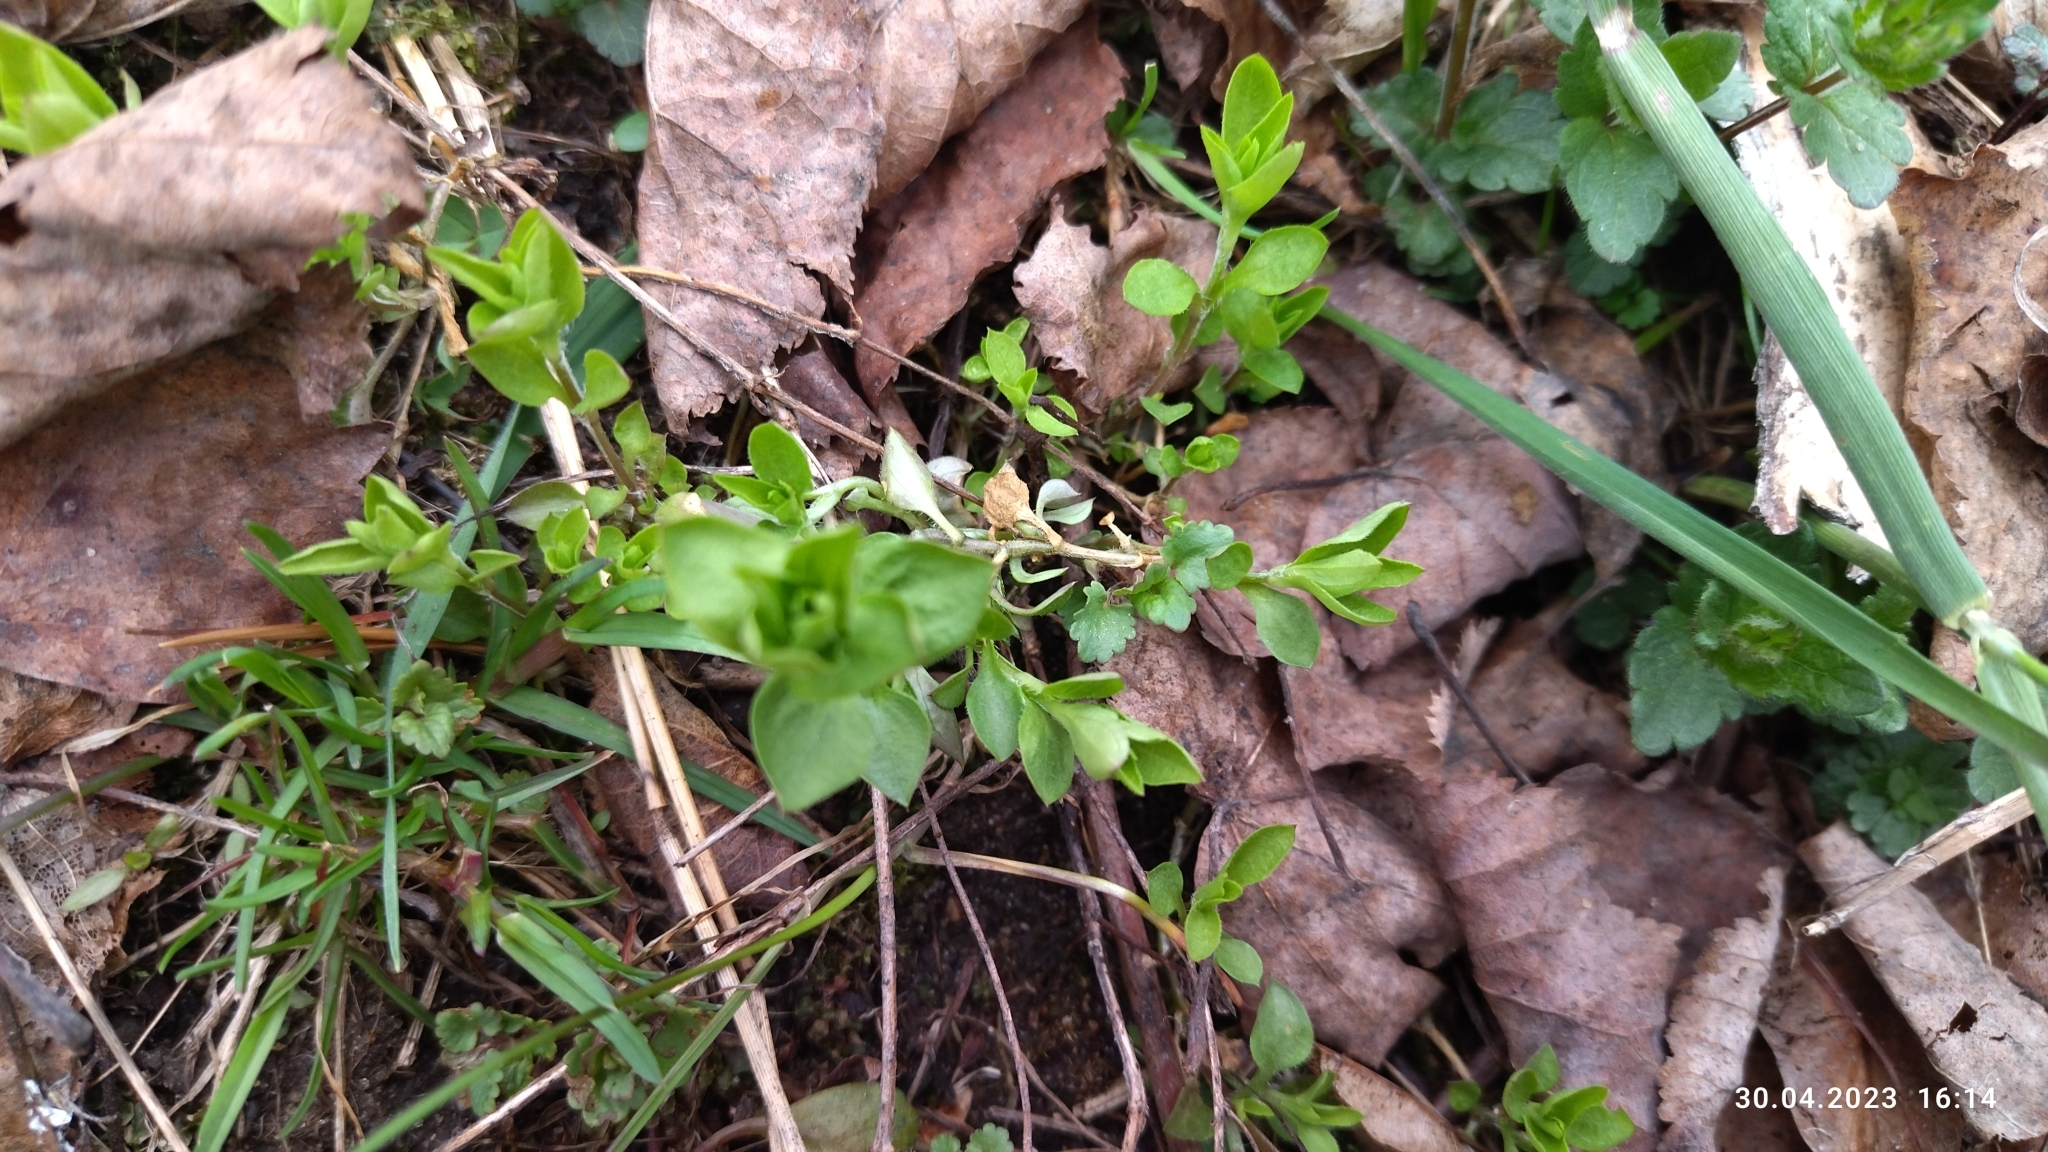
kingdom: Plantae
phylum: Tracheophyta
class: Magnoliopsida
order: Caryophyllales
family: Caryophyllaceae
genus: Moehringia
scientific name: Moehringia trinervia
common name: Three-nerved sandwort
